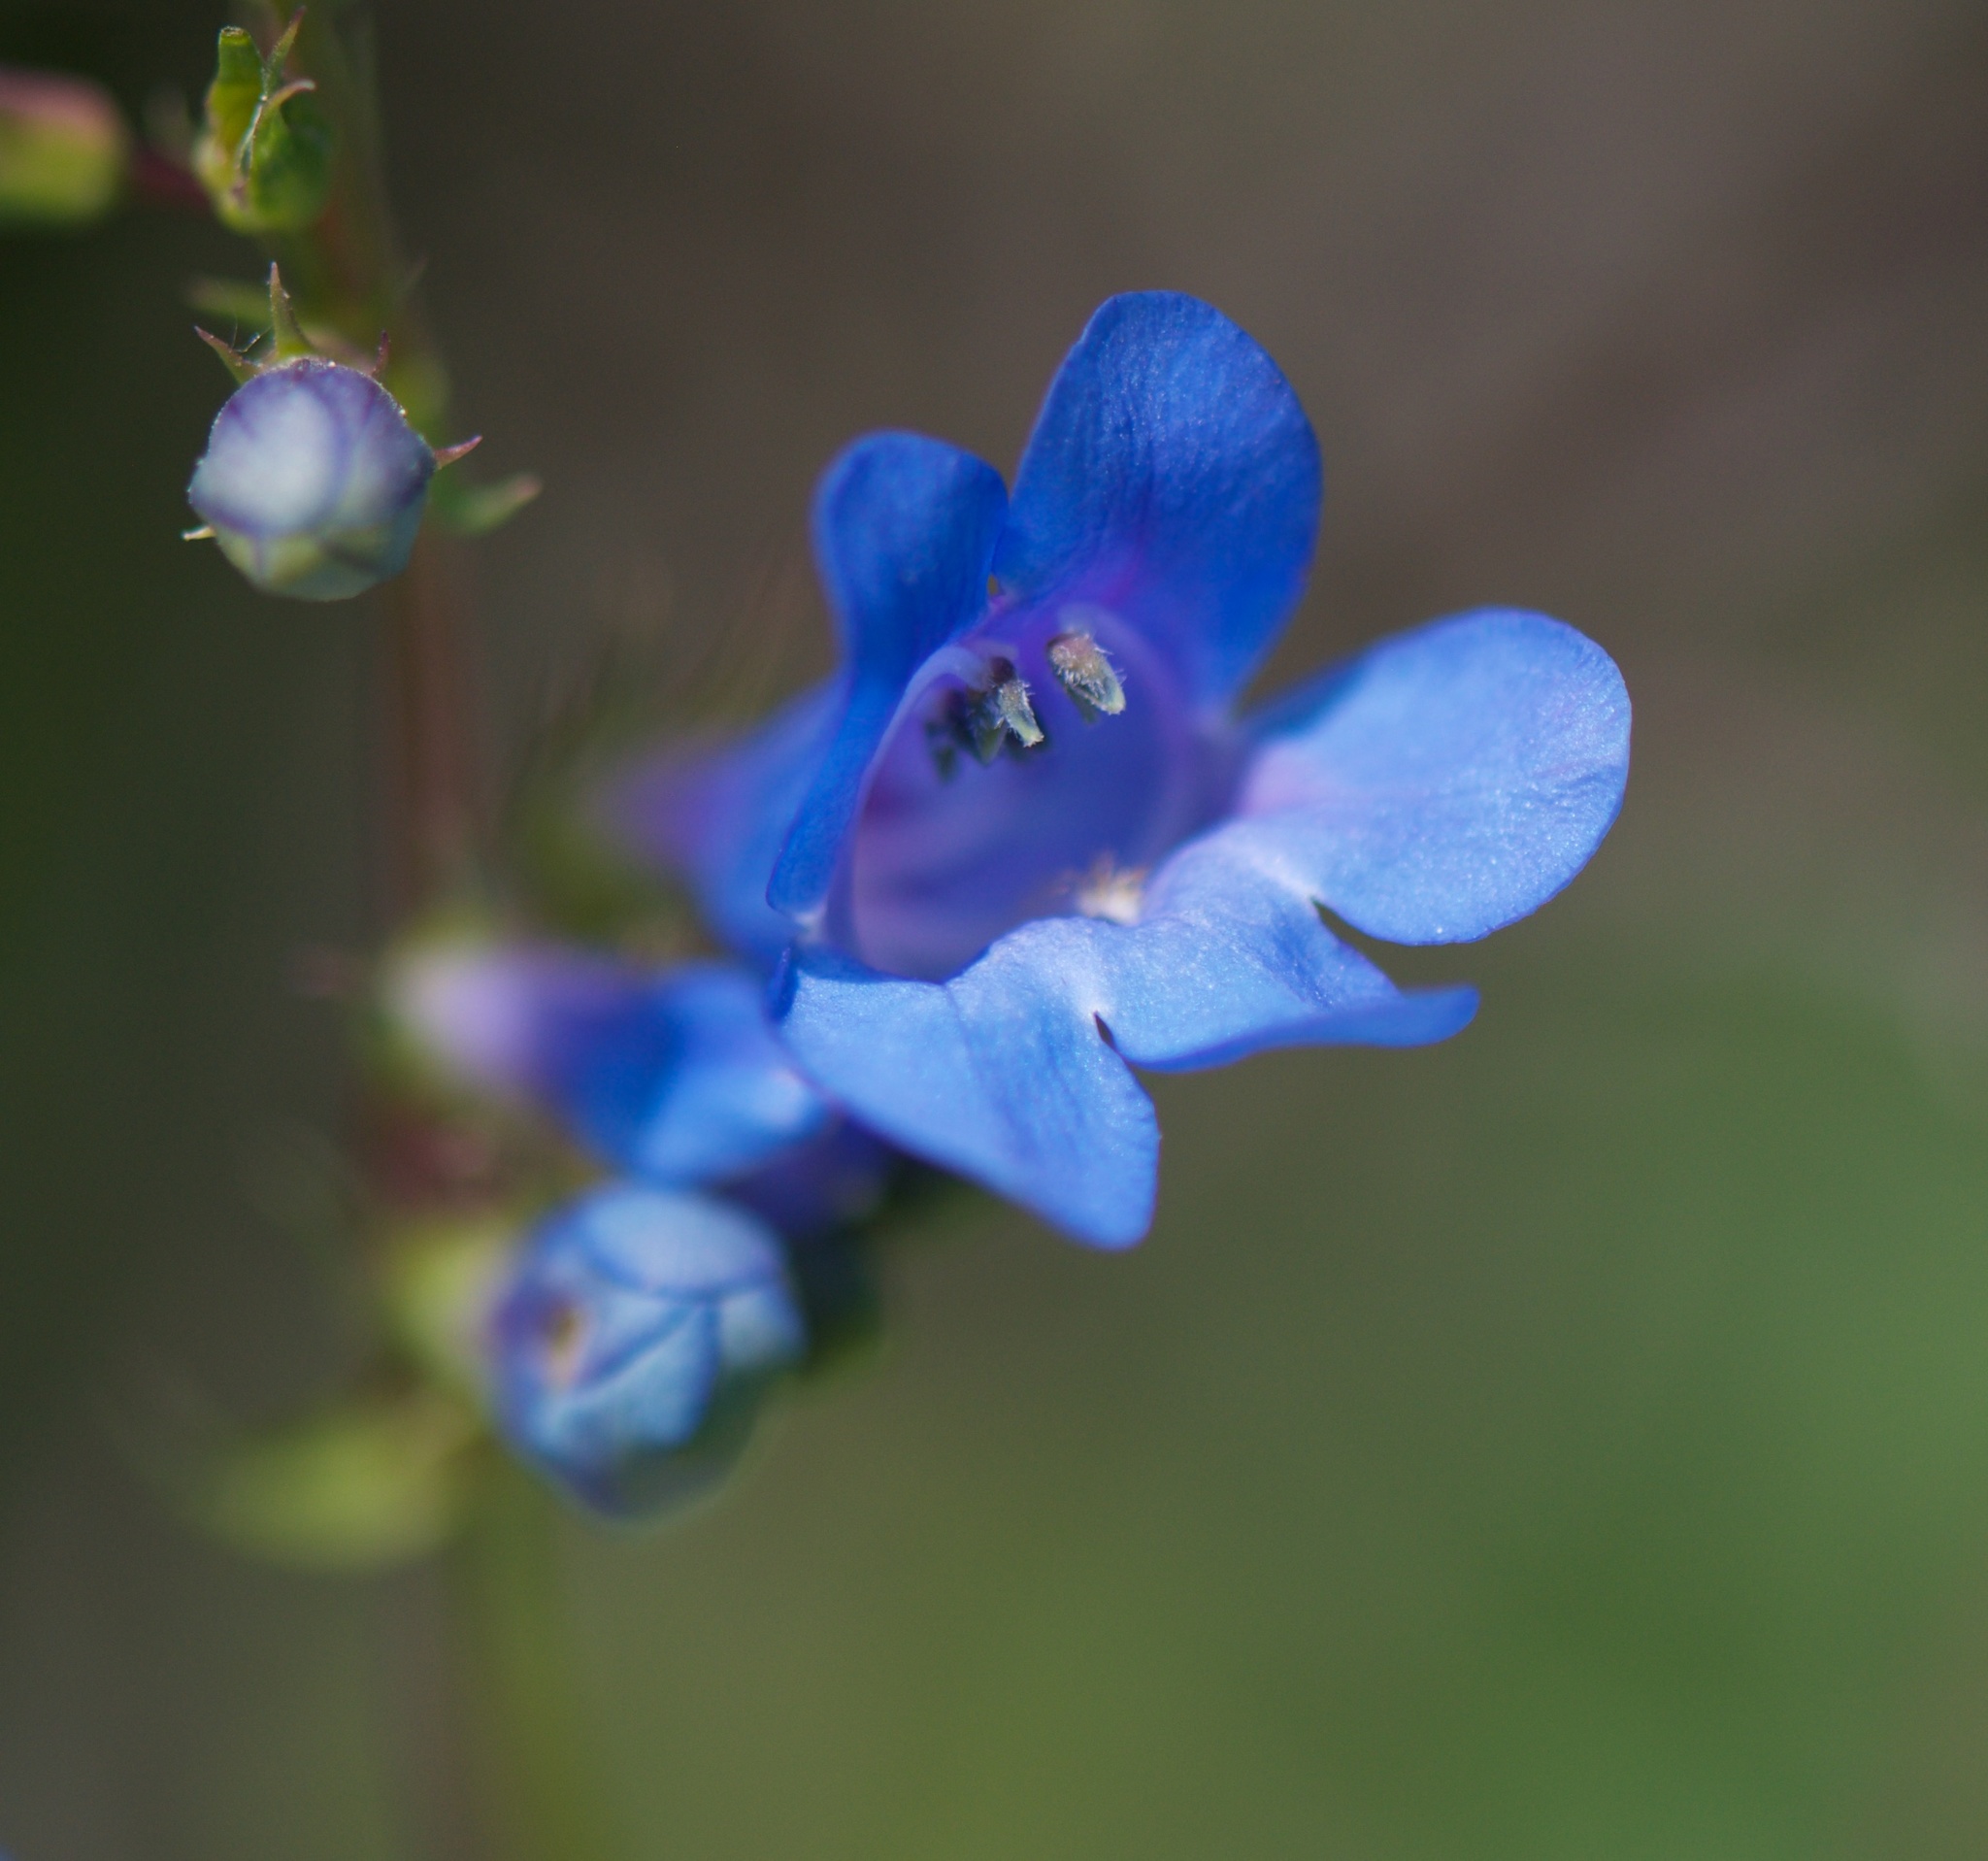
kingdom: Plantae
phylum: Tracheophyta
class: Magnoliopsida
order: Lamiales
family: Plantaginaceae
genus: Penstemon
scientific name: Penstemon cyananthus
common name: Wasatch penstemon
